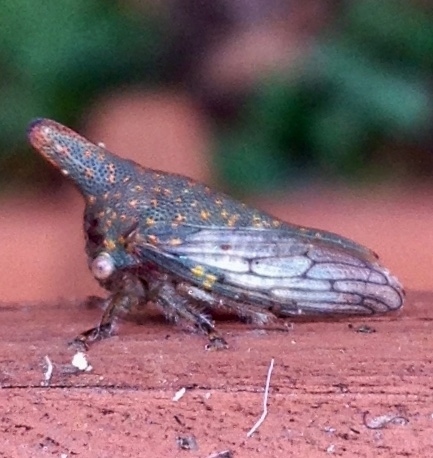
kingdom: Animalia
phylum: Arthropoda
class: Insecta
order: Hemiptera
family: Membracidae
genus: Platycotis
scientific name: Platycotis vittatus
